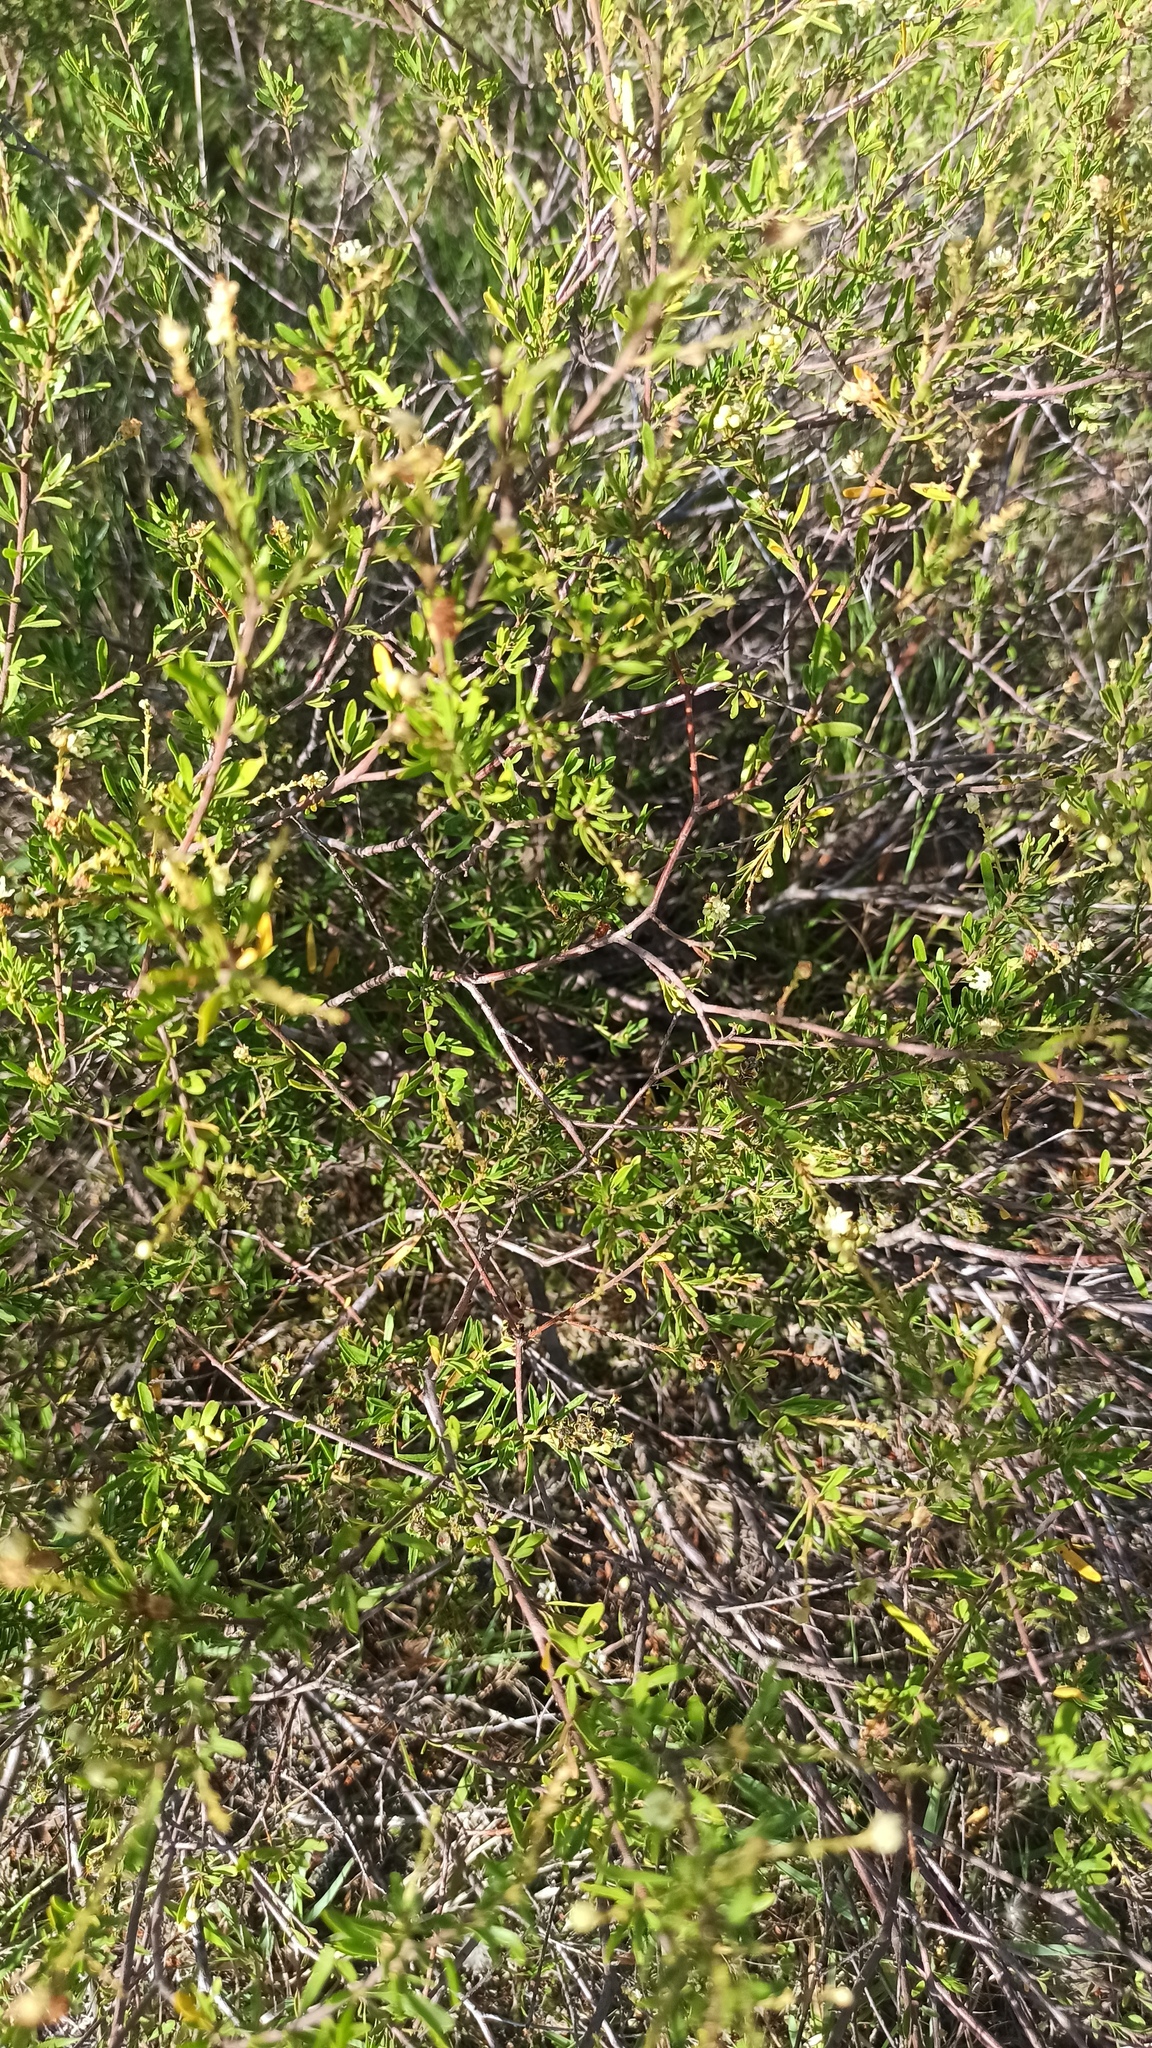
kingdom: Plantae
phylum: Tracheophyta
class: Magnoliopsida
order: Malpighiales
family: Euphorbiaceae
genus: Croton
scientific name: Croton cuchillae-nigrae
